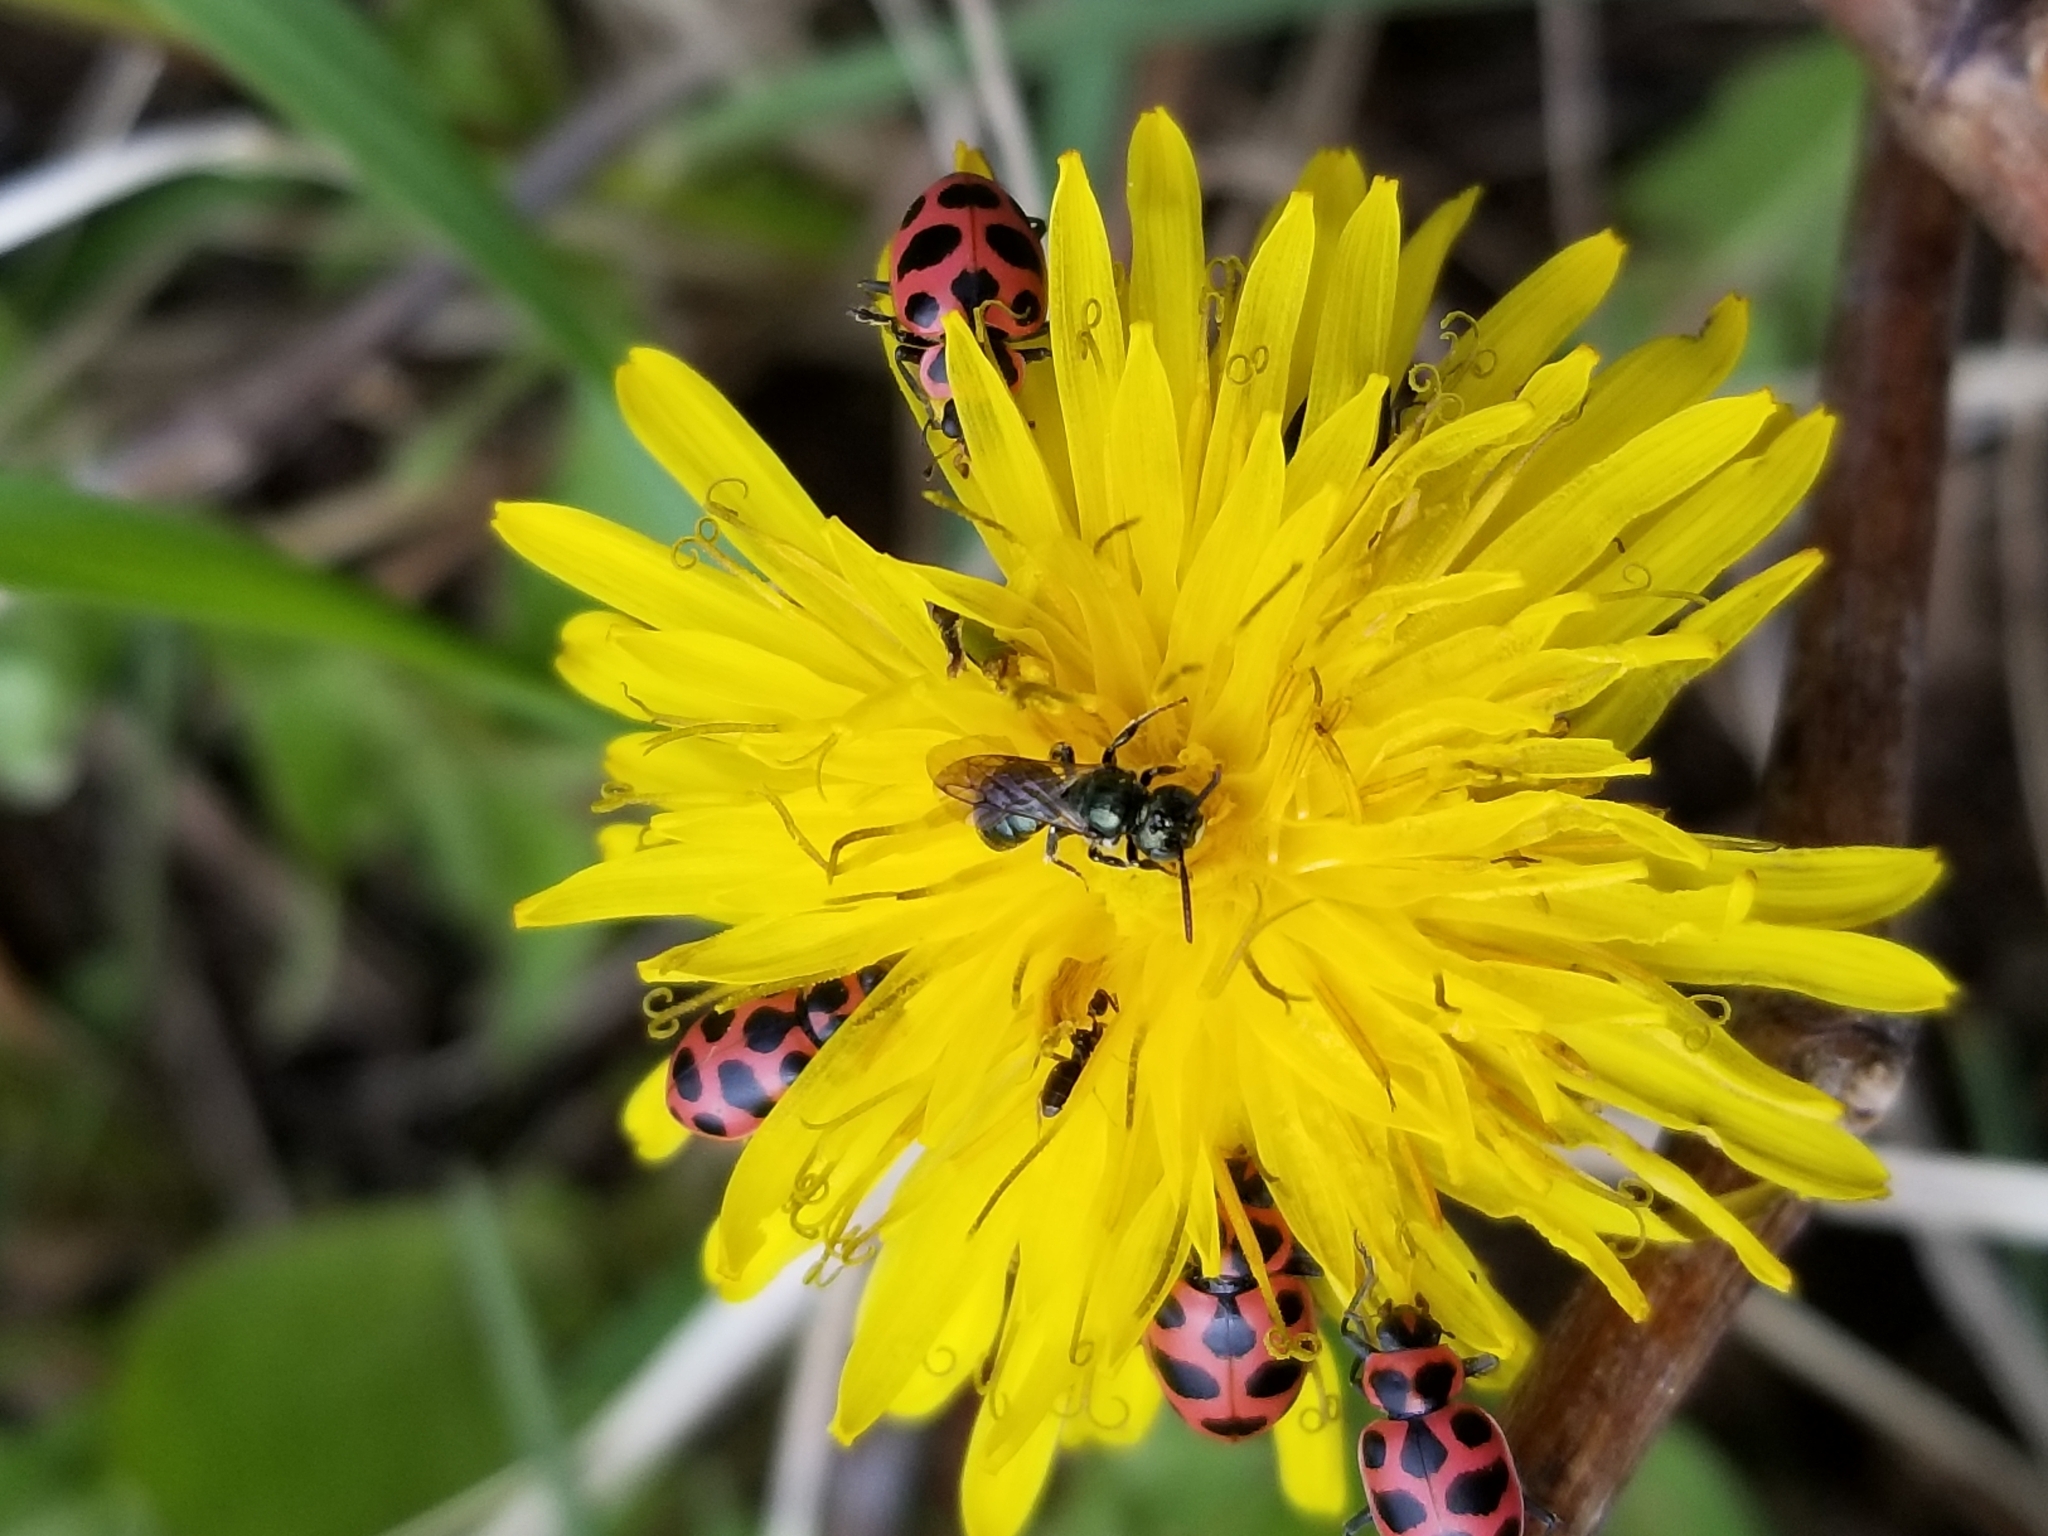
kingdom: Animalia
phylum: Arthropoda
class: Insecta
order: Hymenoptera
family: Formicidae
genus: Tapinoma
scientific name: Tapinoma sessile
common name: Odorous house ant
